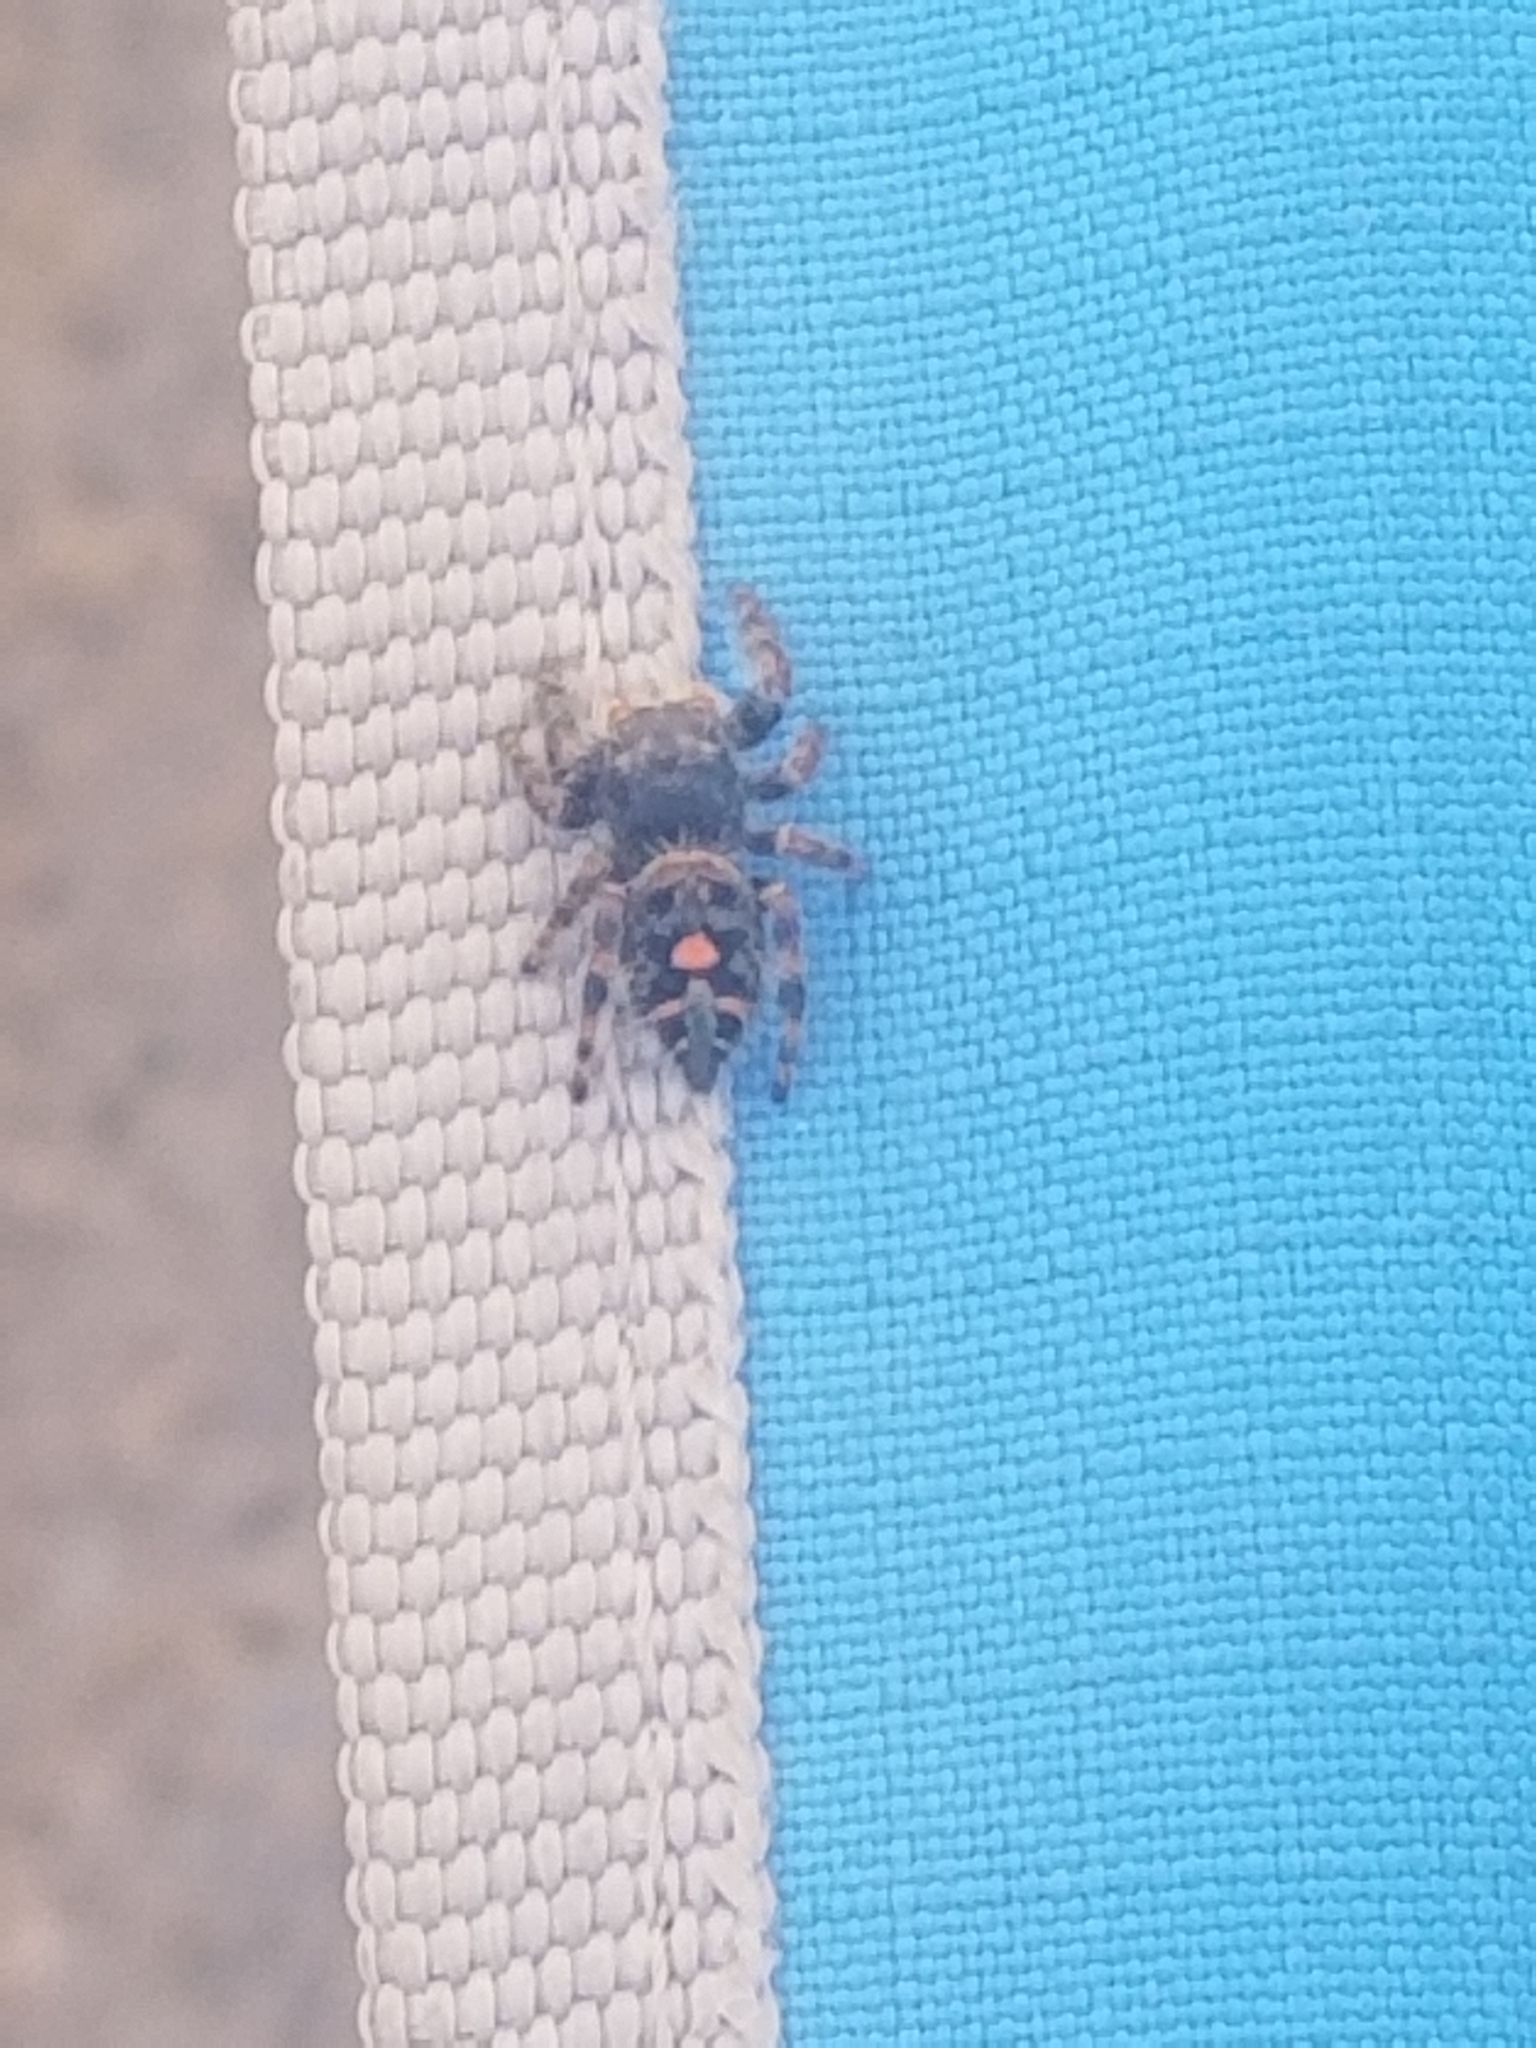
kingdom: Animalia
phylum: Arthropoda
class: Arachnida
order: Araneae
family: Salticidae
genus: Phidippus
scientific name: Phidippus audax
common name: Bold jumper
